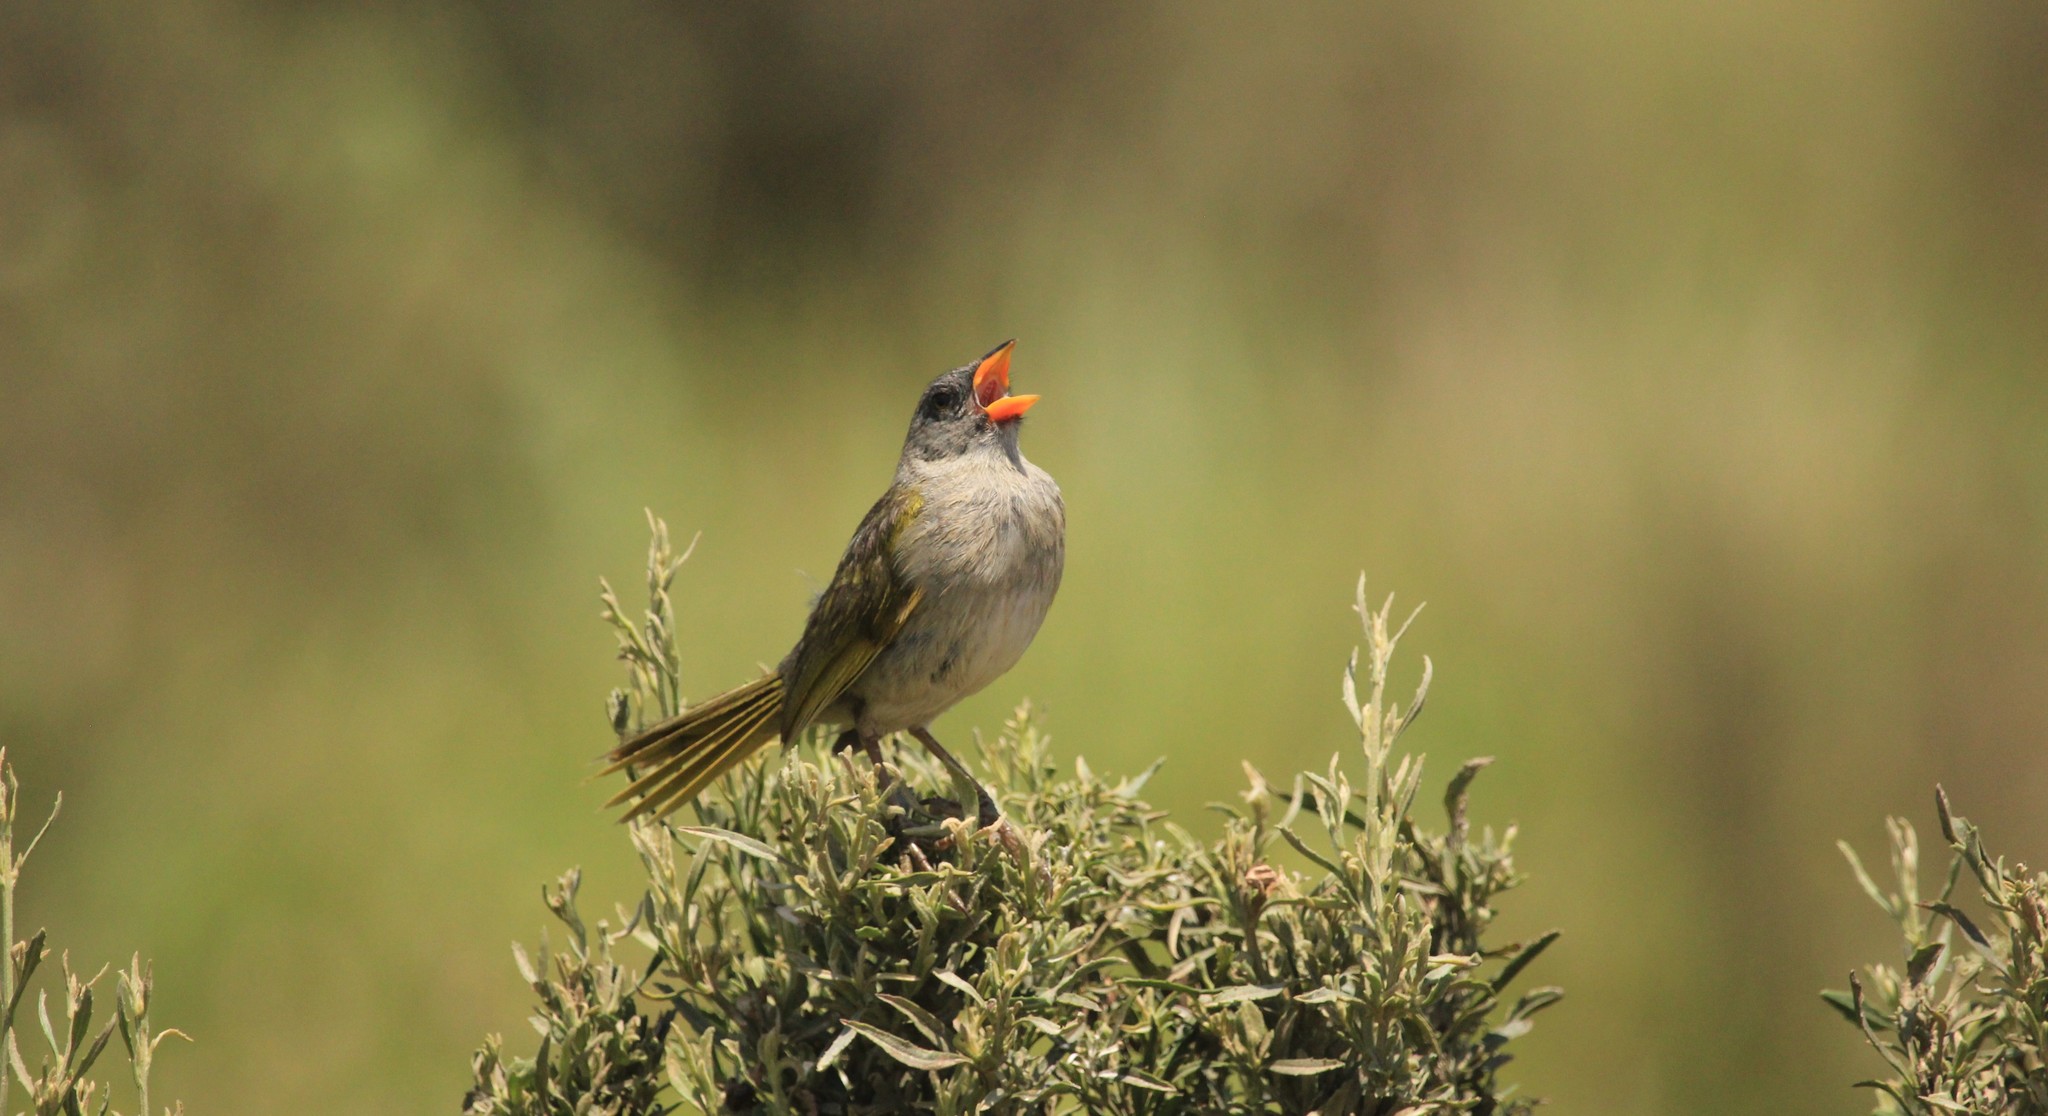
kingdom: Animalia
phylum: Chordata
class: Aves
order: Passeriformes
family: Thraupidae
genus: Embernagra
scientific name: Embernagra platensis
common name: Pampa finch
